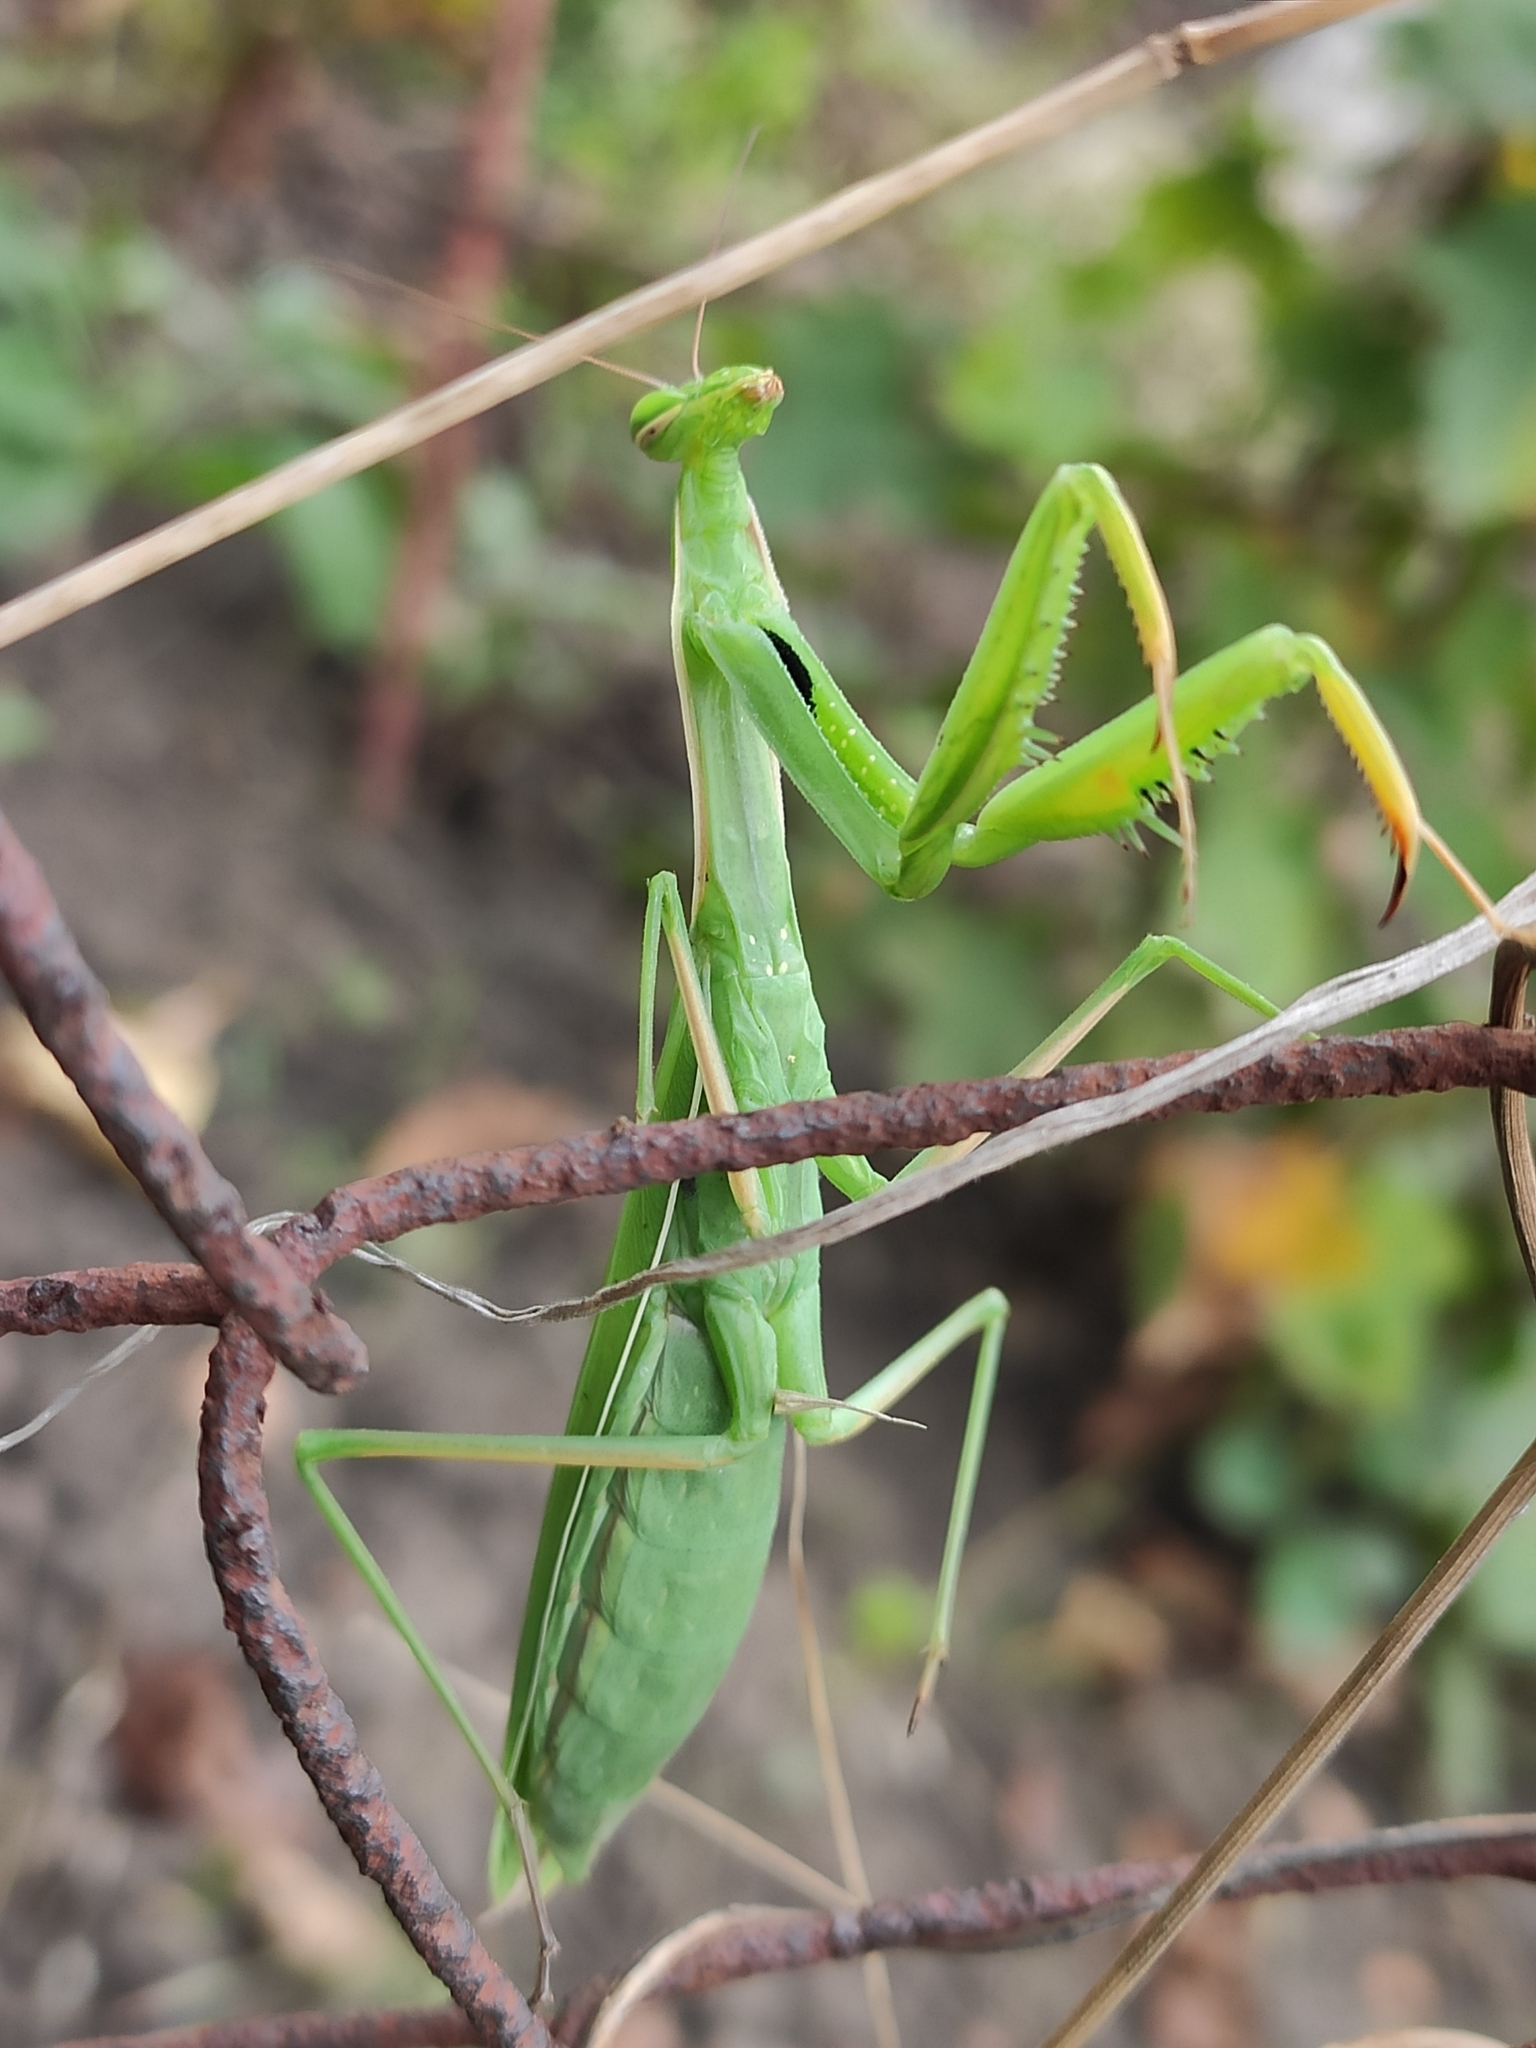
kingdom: Animalia
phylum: Arthropoda
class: Insecta
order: Mantodea
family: Mantidae
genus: Mantis
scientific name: Mantis religiosa
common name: Praying mantis
